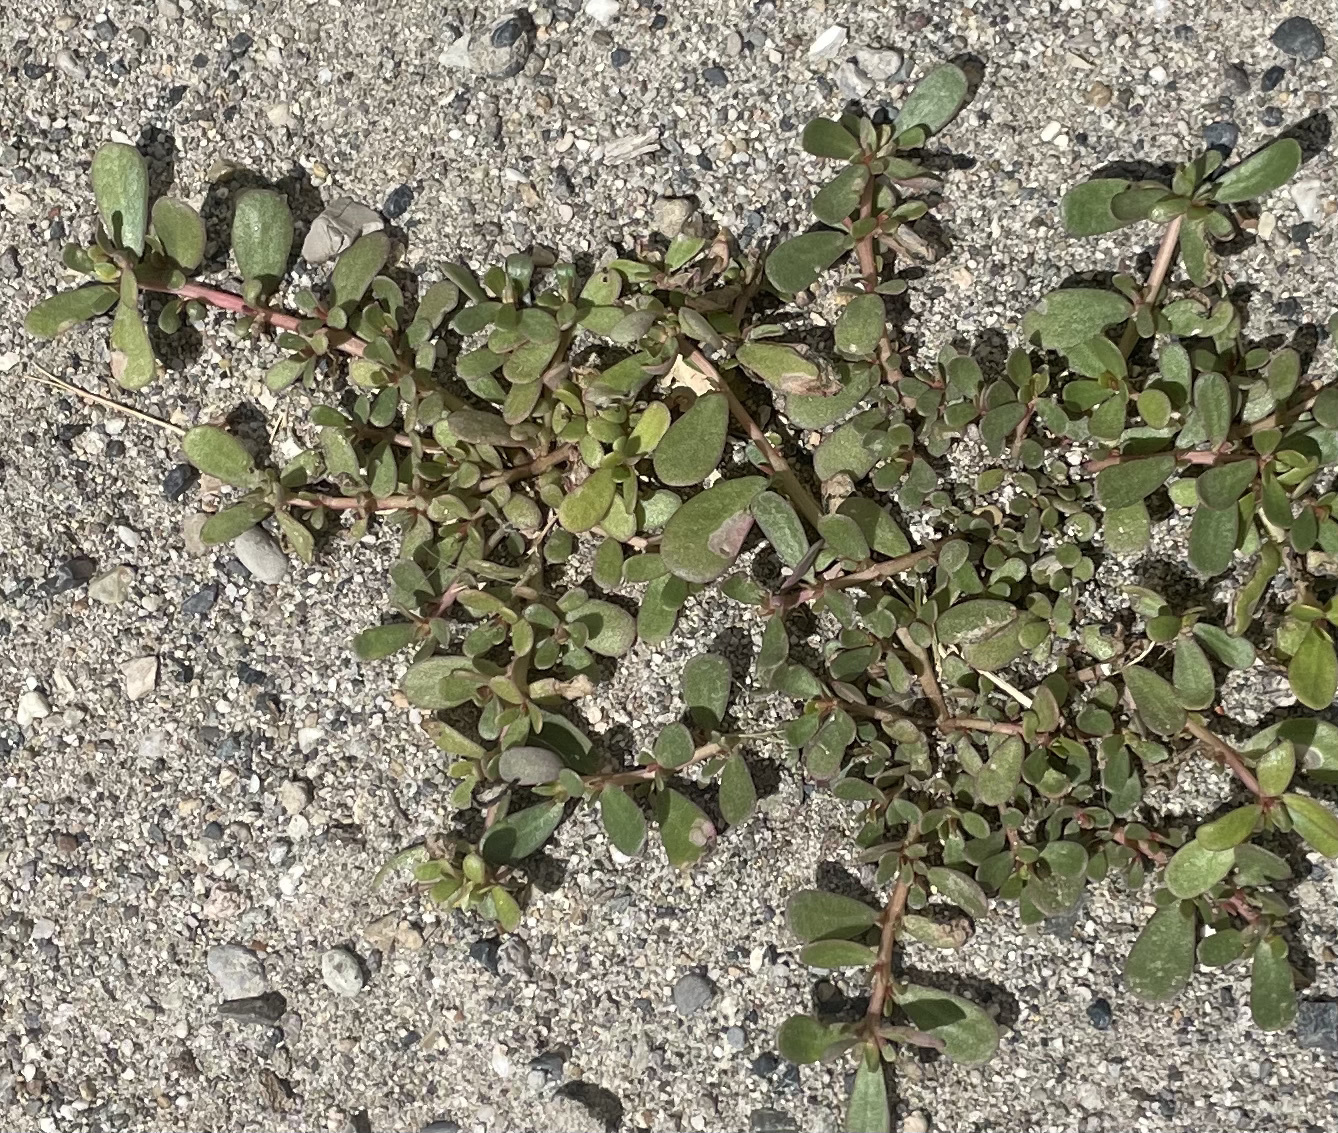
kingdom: Plantae
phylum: Tracheophyta
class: Magnoliopsida
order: Caryophyllales
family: Portulacaceae
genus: Portulaca
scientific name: Portulaca oleracea
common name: Common purslane
